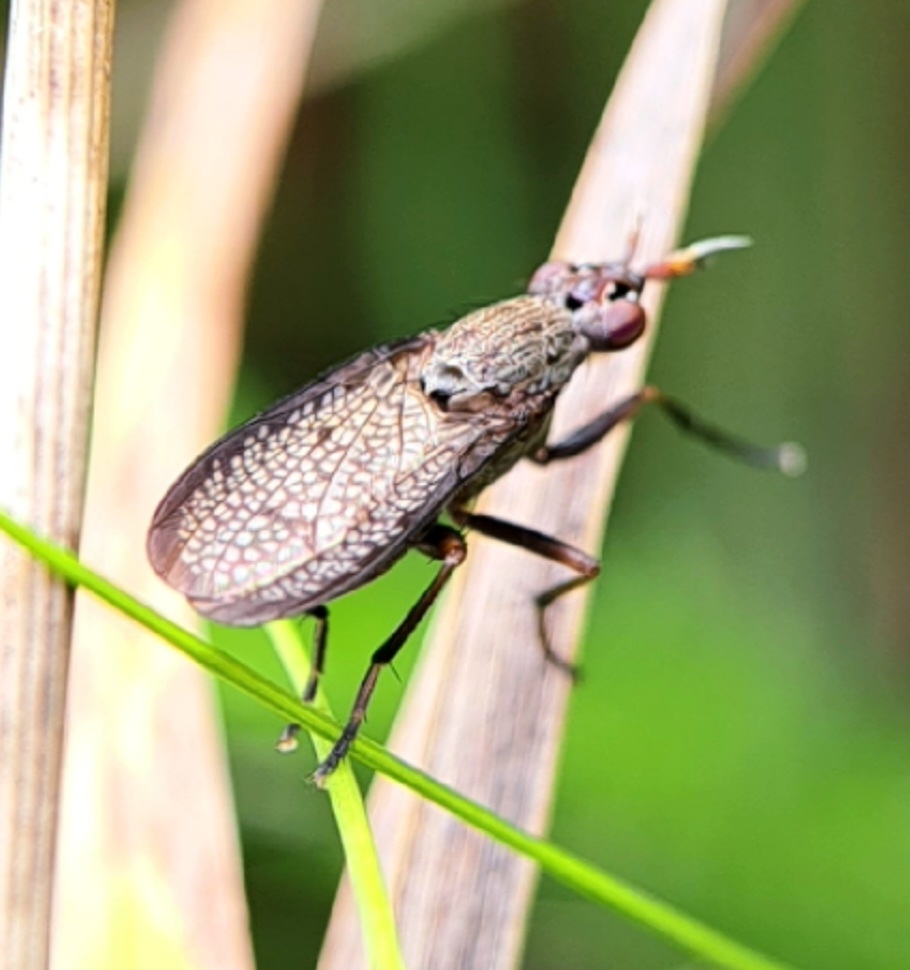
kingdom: Animalia
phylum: Arthropoda
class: Insecta
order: Diptera
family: Sciomyzidae
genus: Coremacera
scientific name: Coremacera marginata
